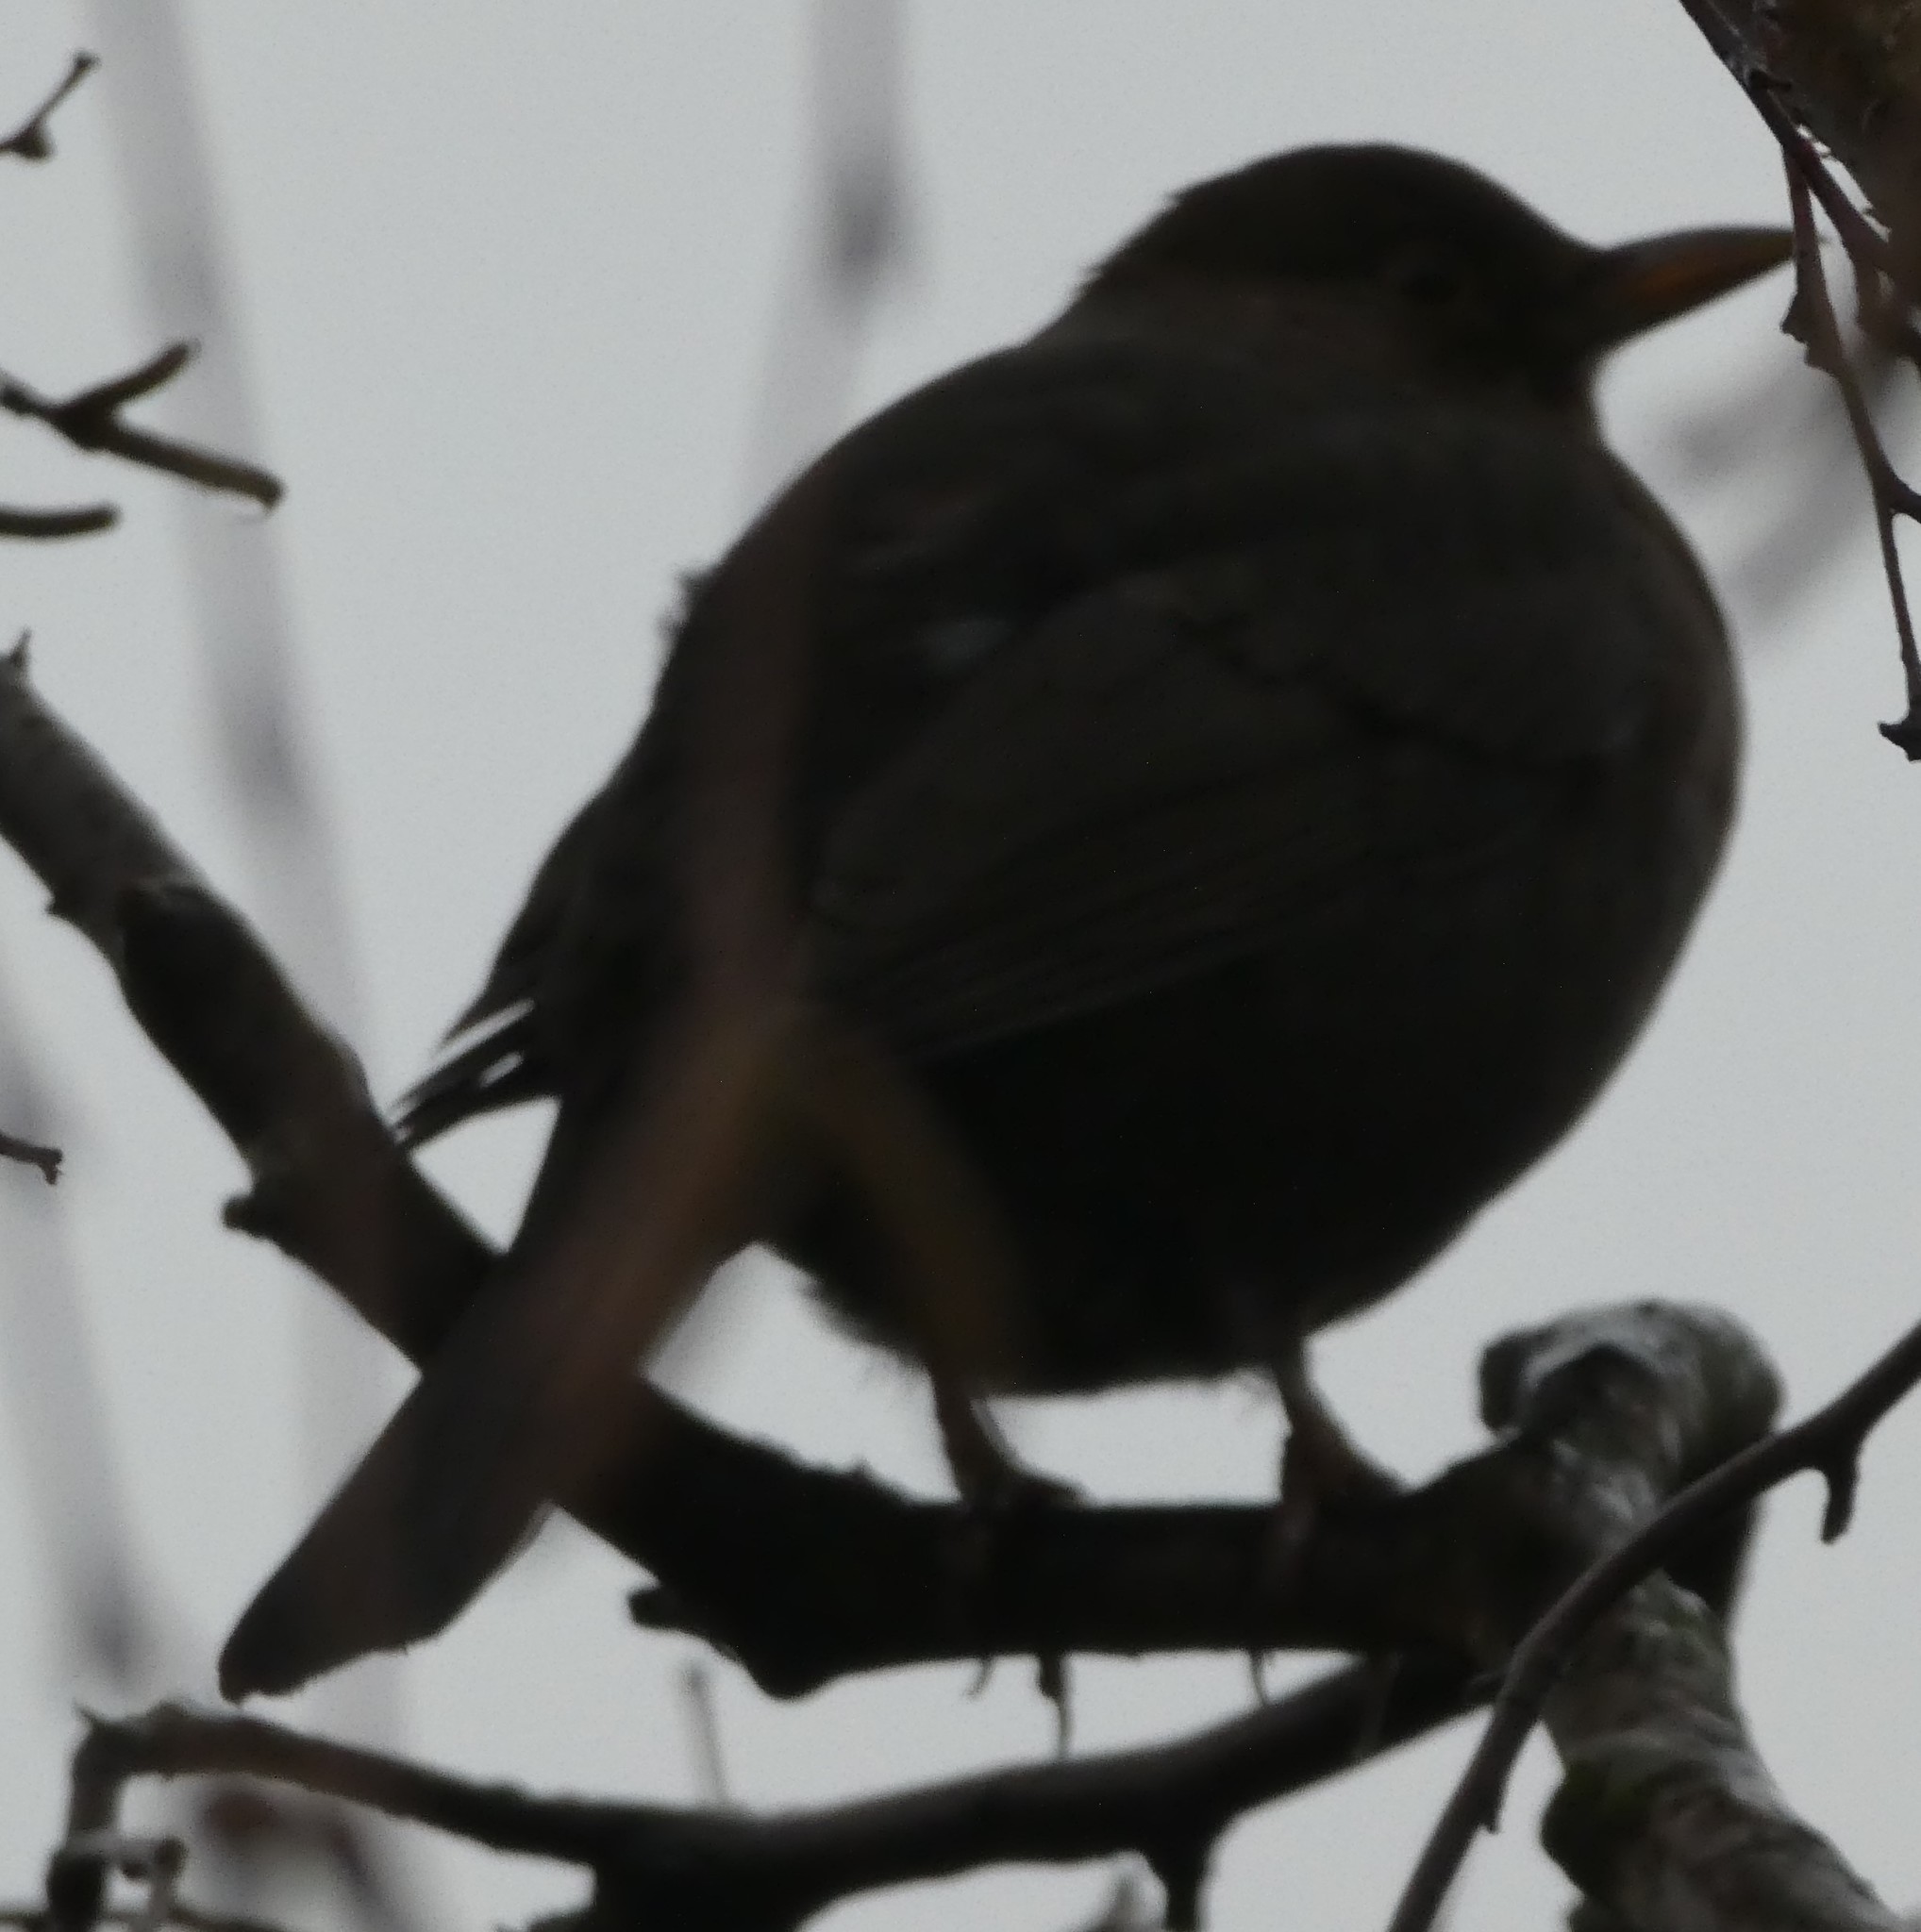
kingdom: Animalia
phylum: Chordata
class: Aves
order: Passeriformes
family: Turdidae
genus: Turdus
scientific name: Turdus merula
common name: Common blackbird
